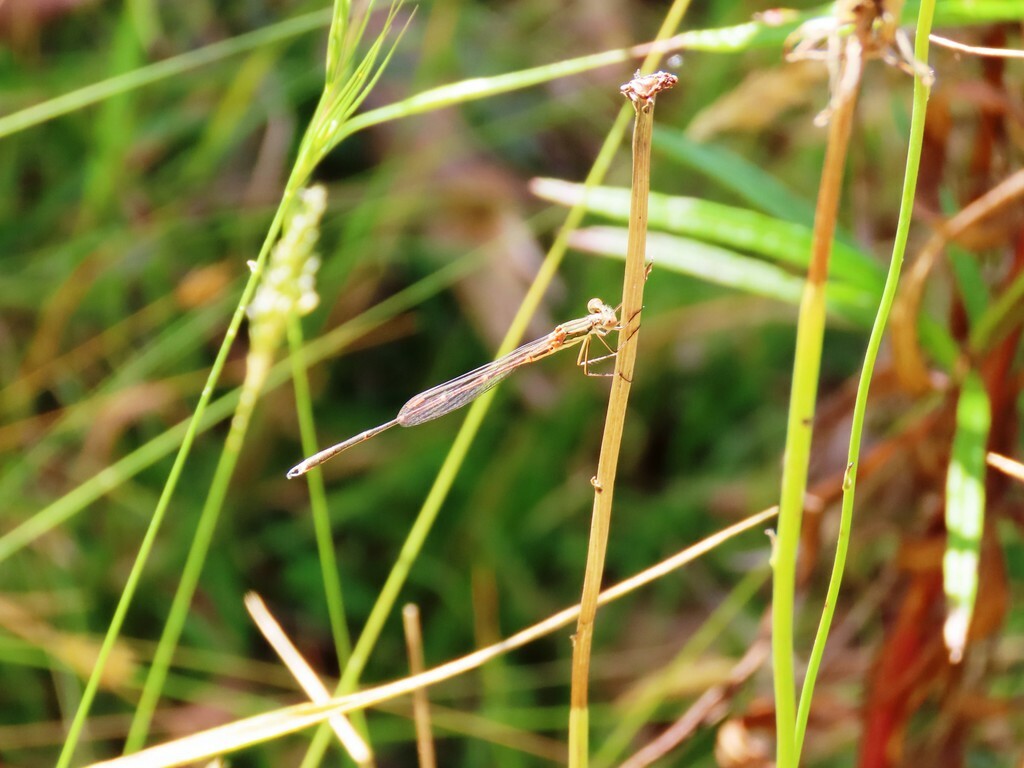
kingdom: Animalia
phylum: Arthropoda
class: Insecta
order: Odonata
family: Lestidae
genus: Austrolestes
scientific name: Austrolestes analis
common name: Slender ringtail
